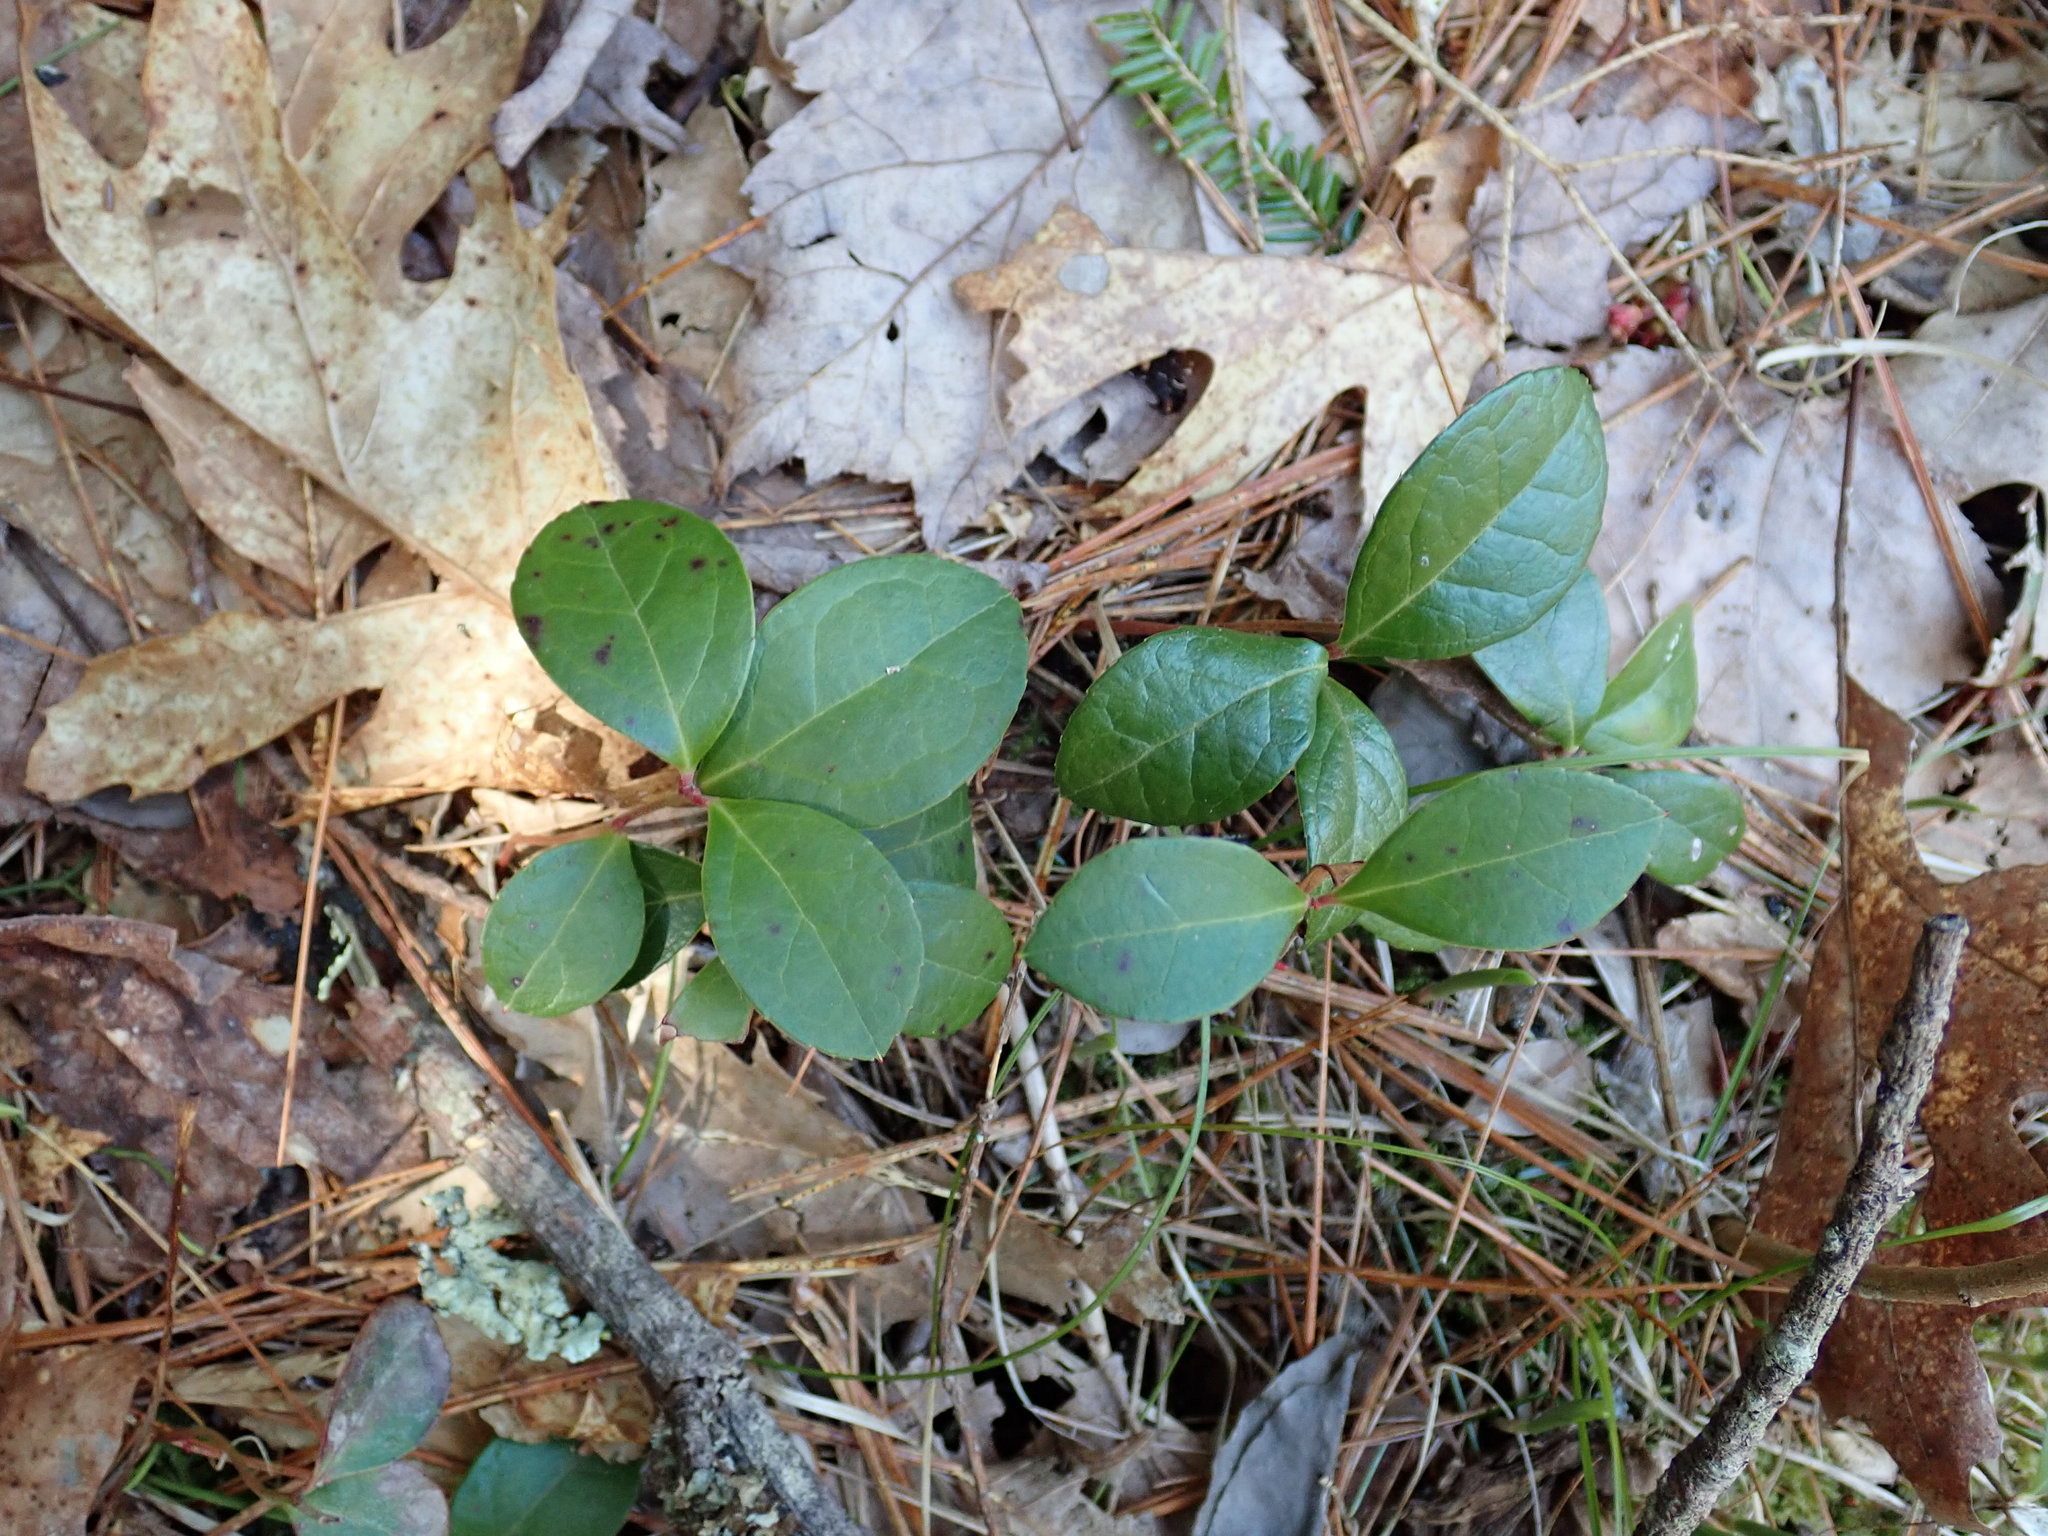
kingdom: Plantae
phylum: Tracheophyta
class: Magnoliopsida
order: Ericales
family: Ericaceae
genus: Gaultheria
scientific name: Gaultheria procumbens
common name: Checkerberry
